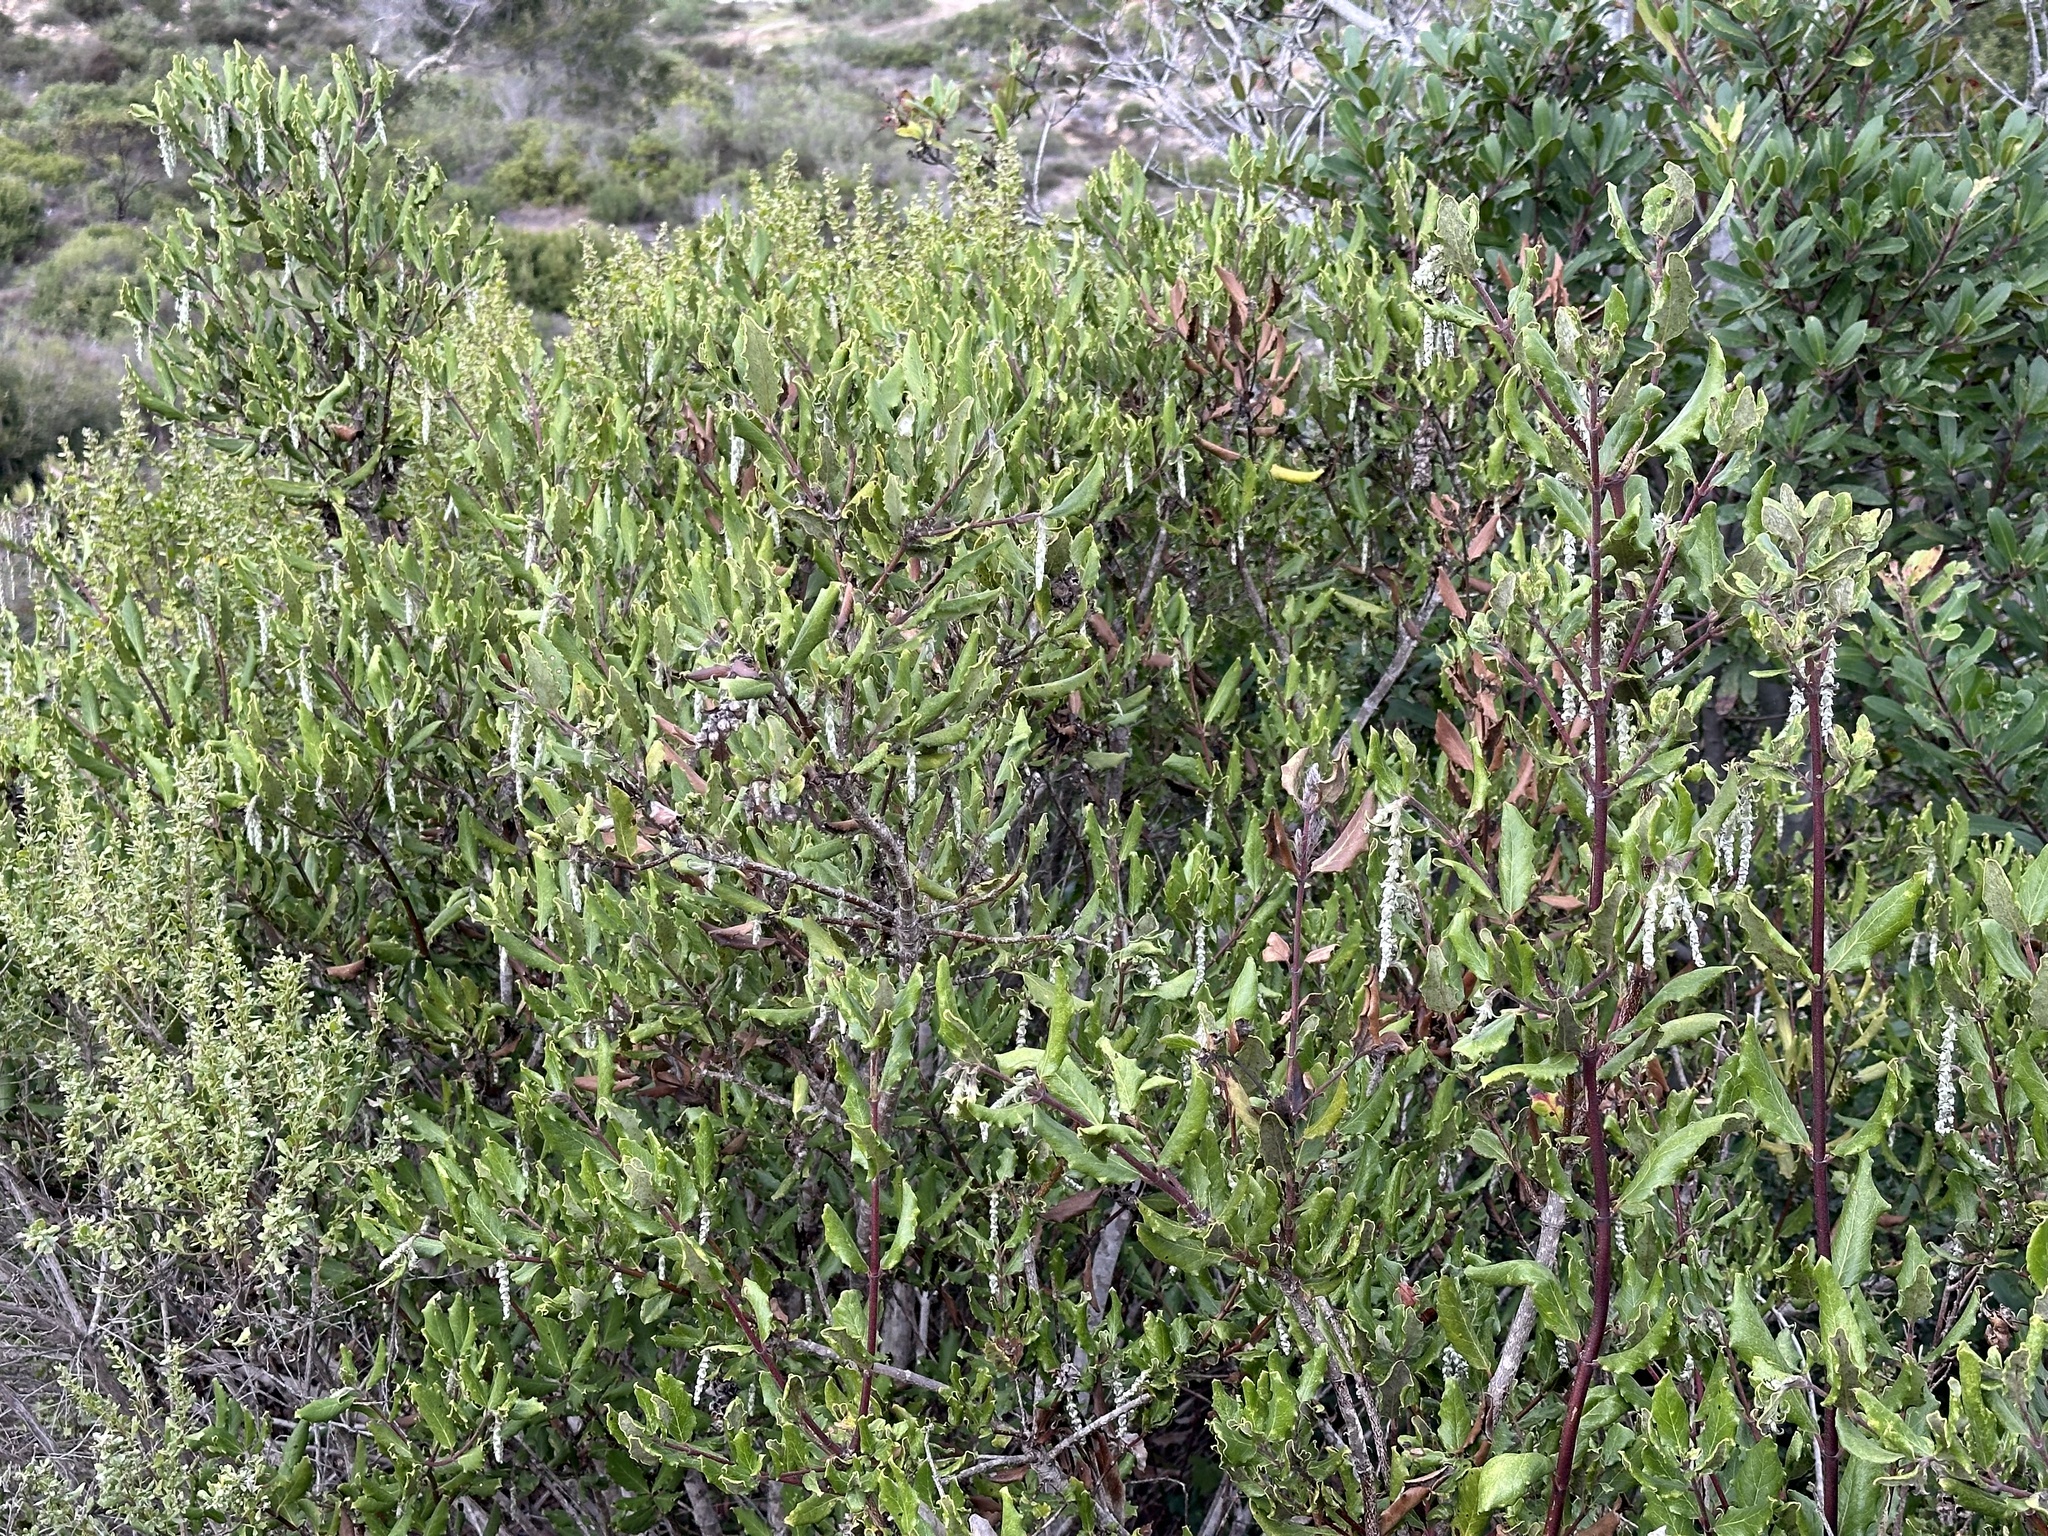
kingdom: Plantae
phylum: Tracheophyta
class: Magnoliopsida
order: Garryales
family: Garryaceae
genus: Garrya
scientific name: Garrya elliptica
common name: Silk-tassel
